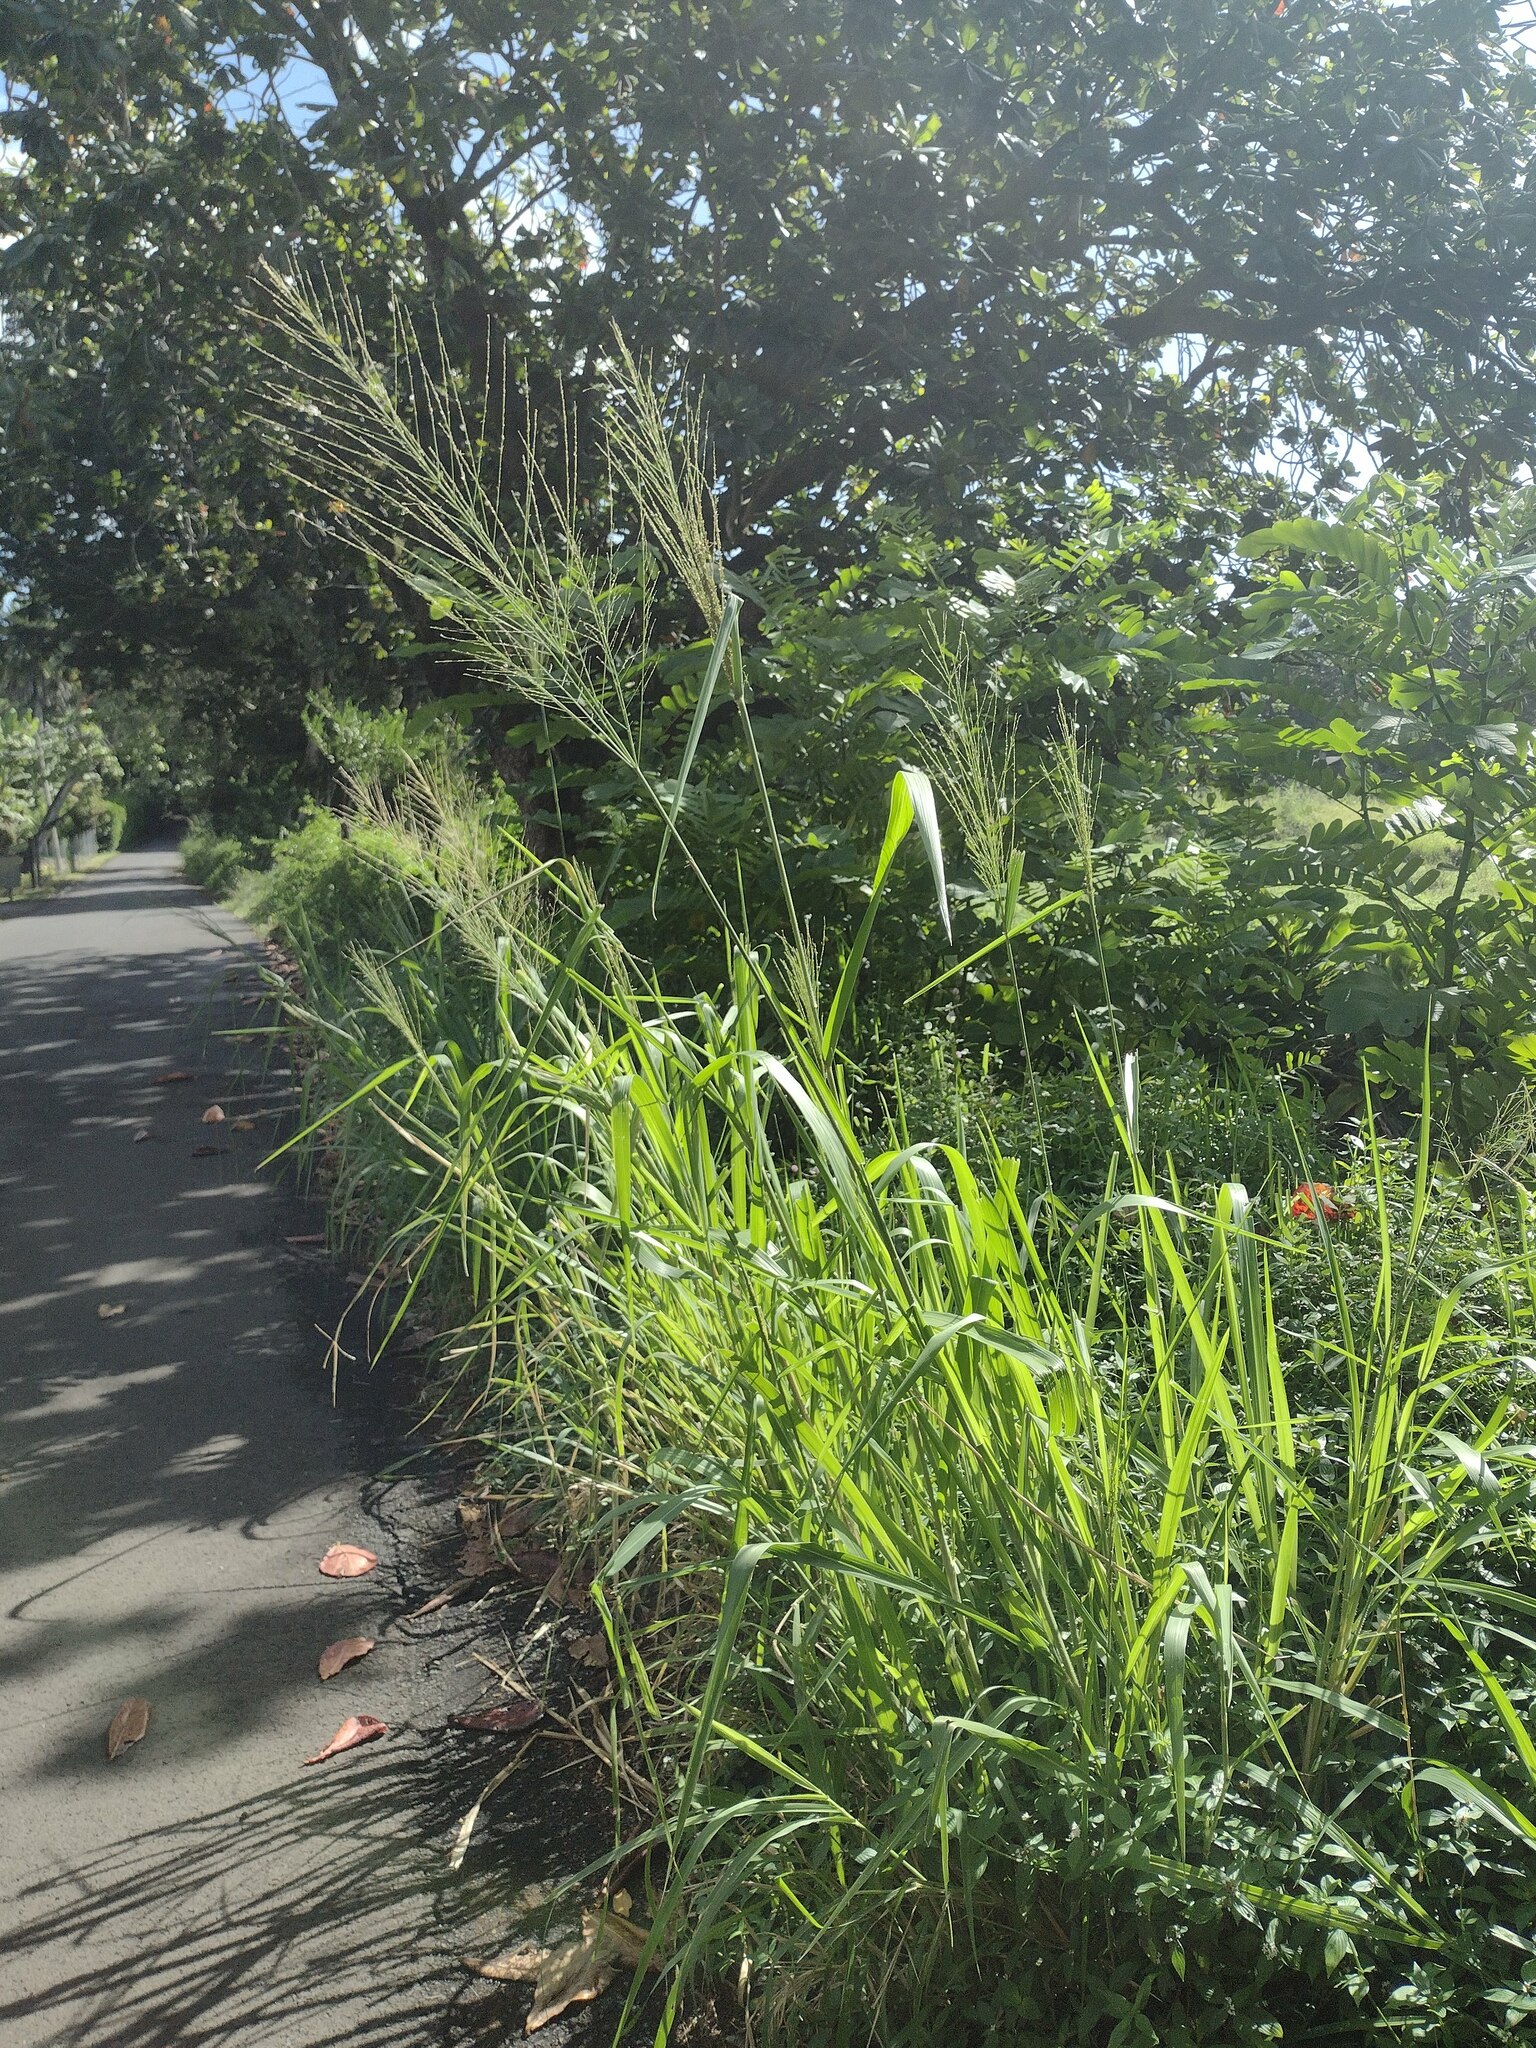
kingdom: Plantae
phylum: Tracheophyta
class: Liliopsida
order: Poales
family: Poaceae
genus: Megathyrsus
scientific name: Megathyrsus maximus
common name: Guineagrass
